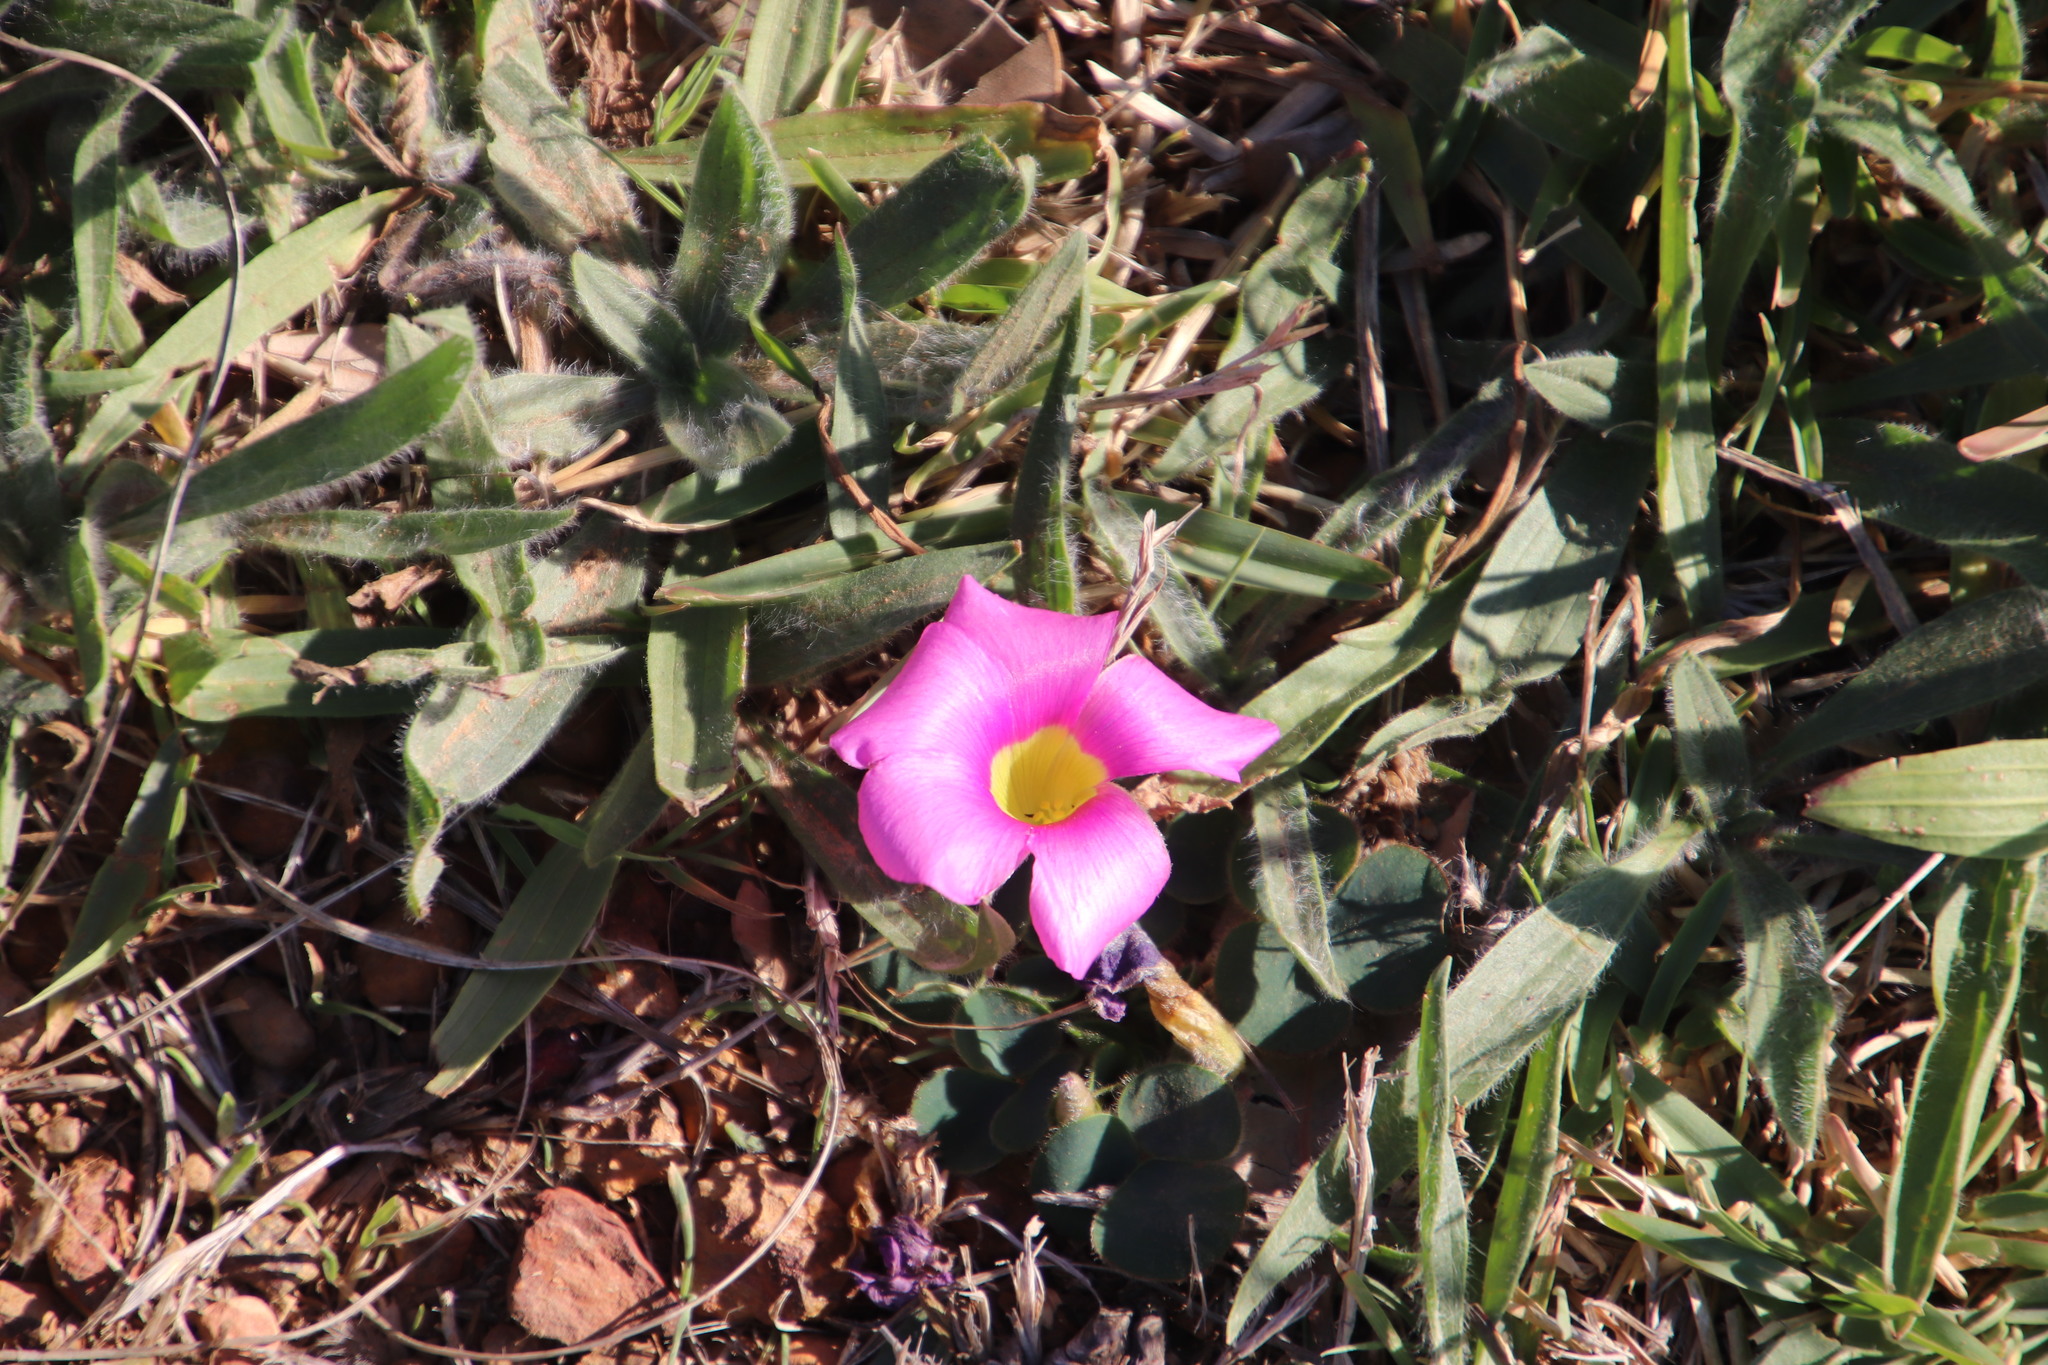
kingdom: Plantae
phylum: Tracheophyta
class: Magnoliopsida
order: Oxalidales
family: Oxalidaceae
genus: Oxalis
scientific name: Oxalis purpurea
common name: Purple woodsorrel
